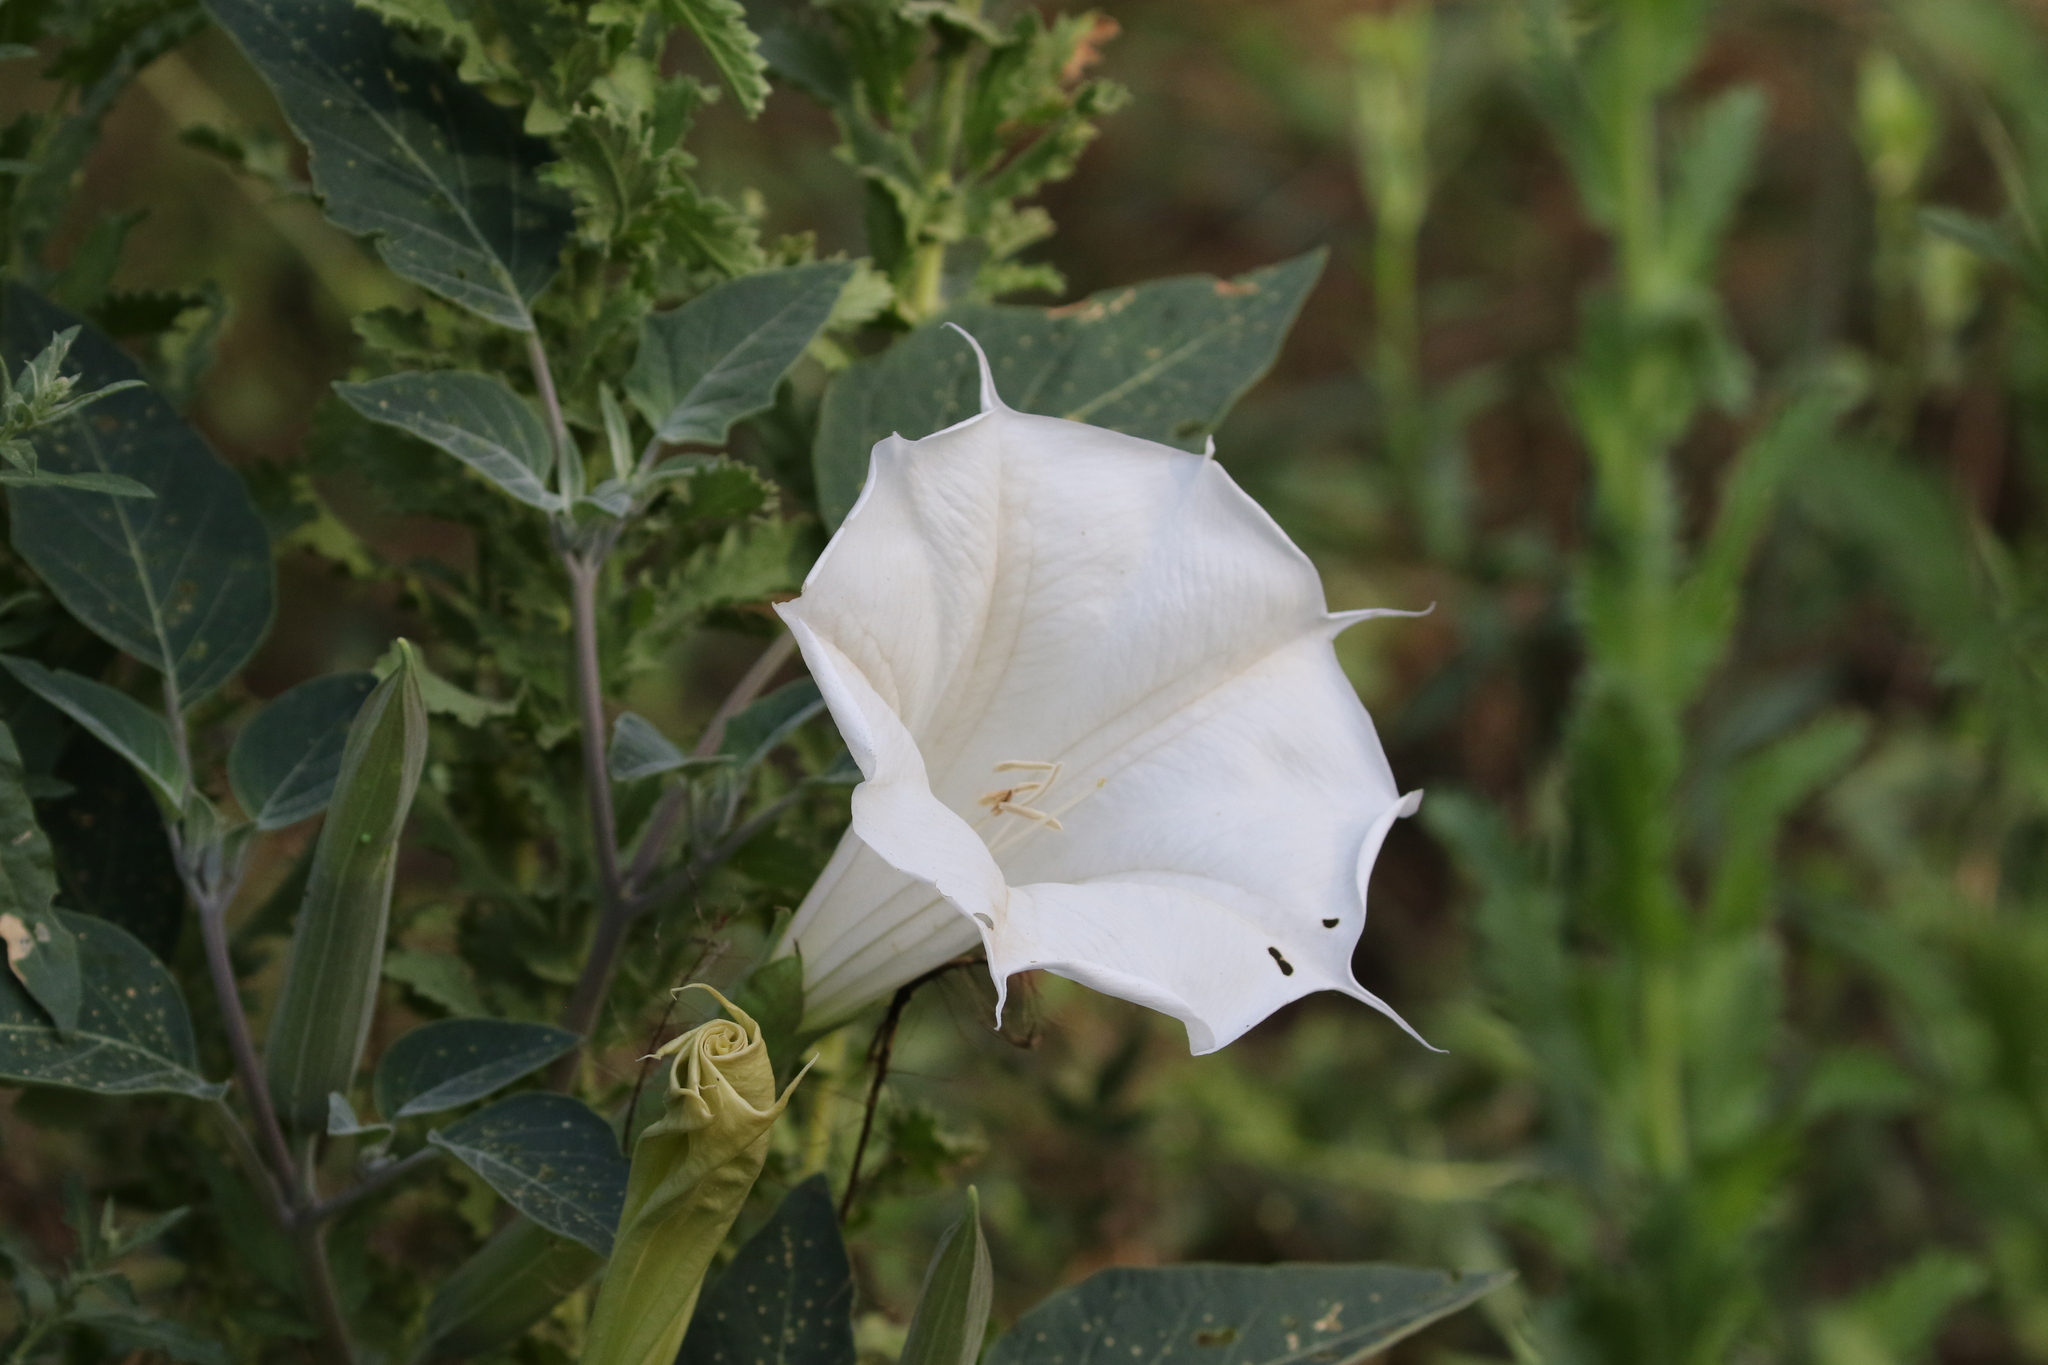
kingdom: Plantae
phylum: Tracheophyta
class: Magnoliopsida
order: Solanales
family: Solanaceae
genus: Datura
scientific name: Datura wrightii
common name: Sacred thorn-apple
